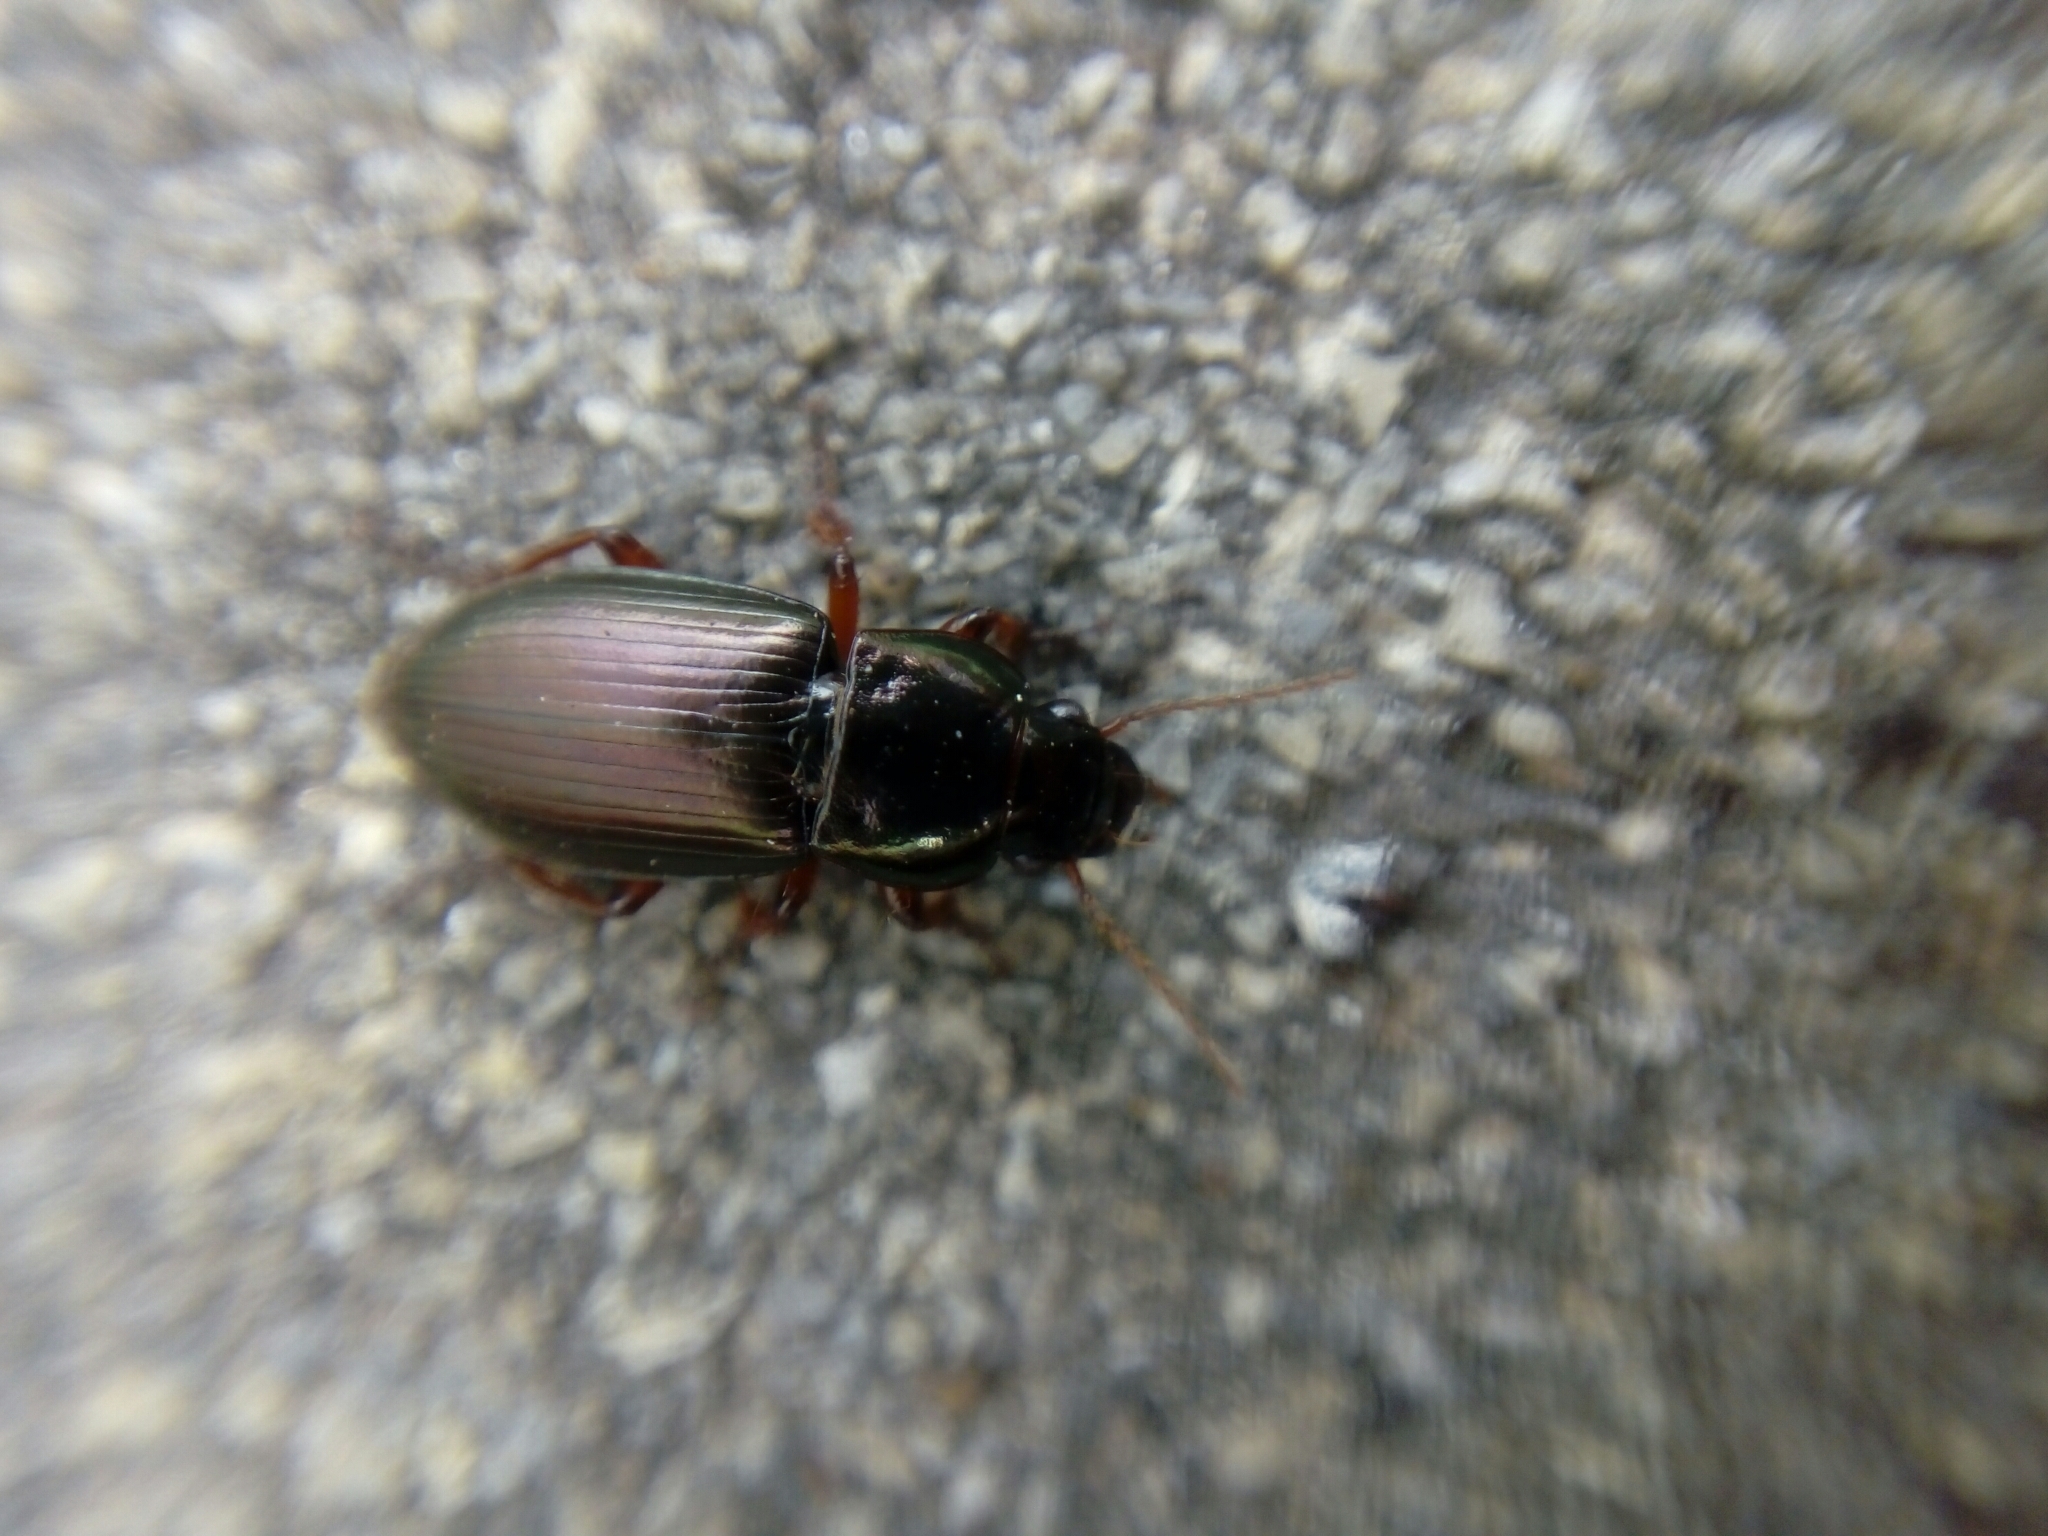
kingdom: Animalia
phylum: Arthropoda
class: Insecta
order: Coleoptera
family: Carabidae
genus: Harpalus
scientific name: Harpalus affinis
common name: Polychrome harp ground beetle
